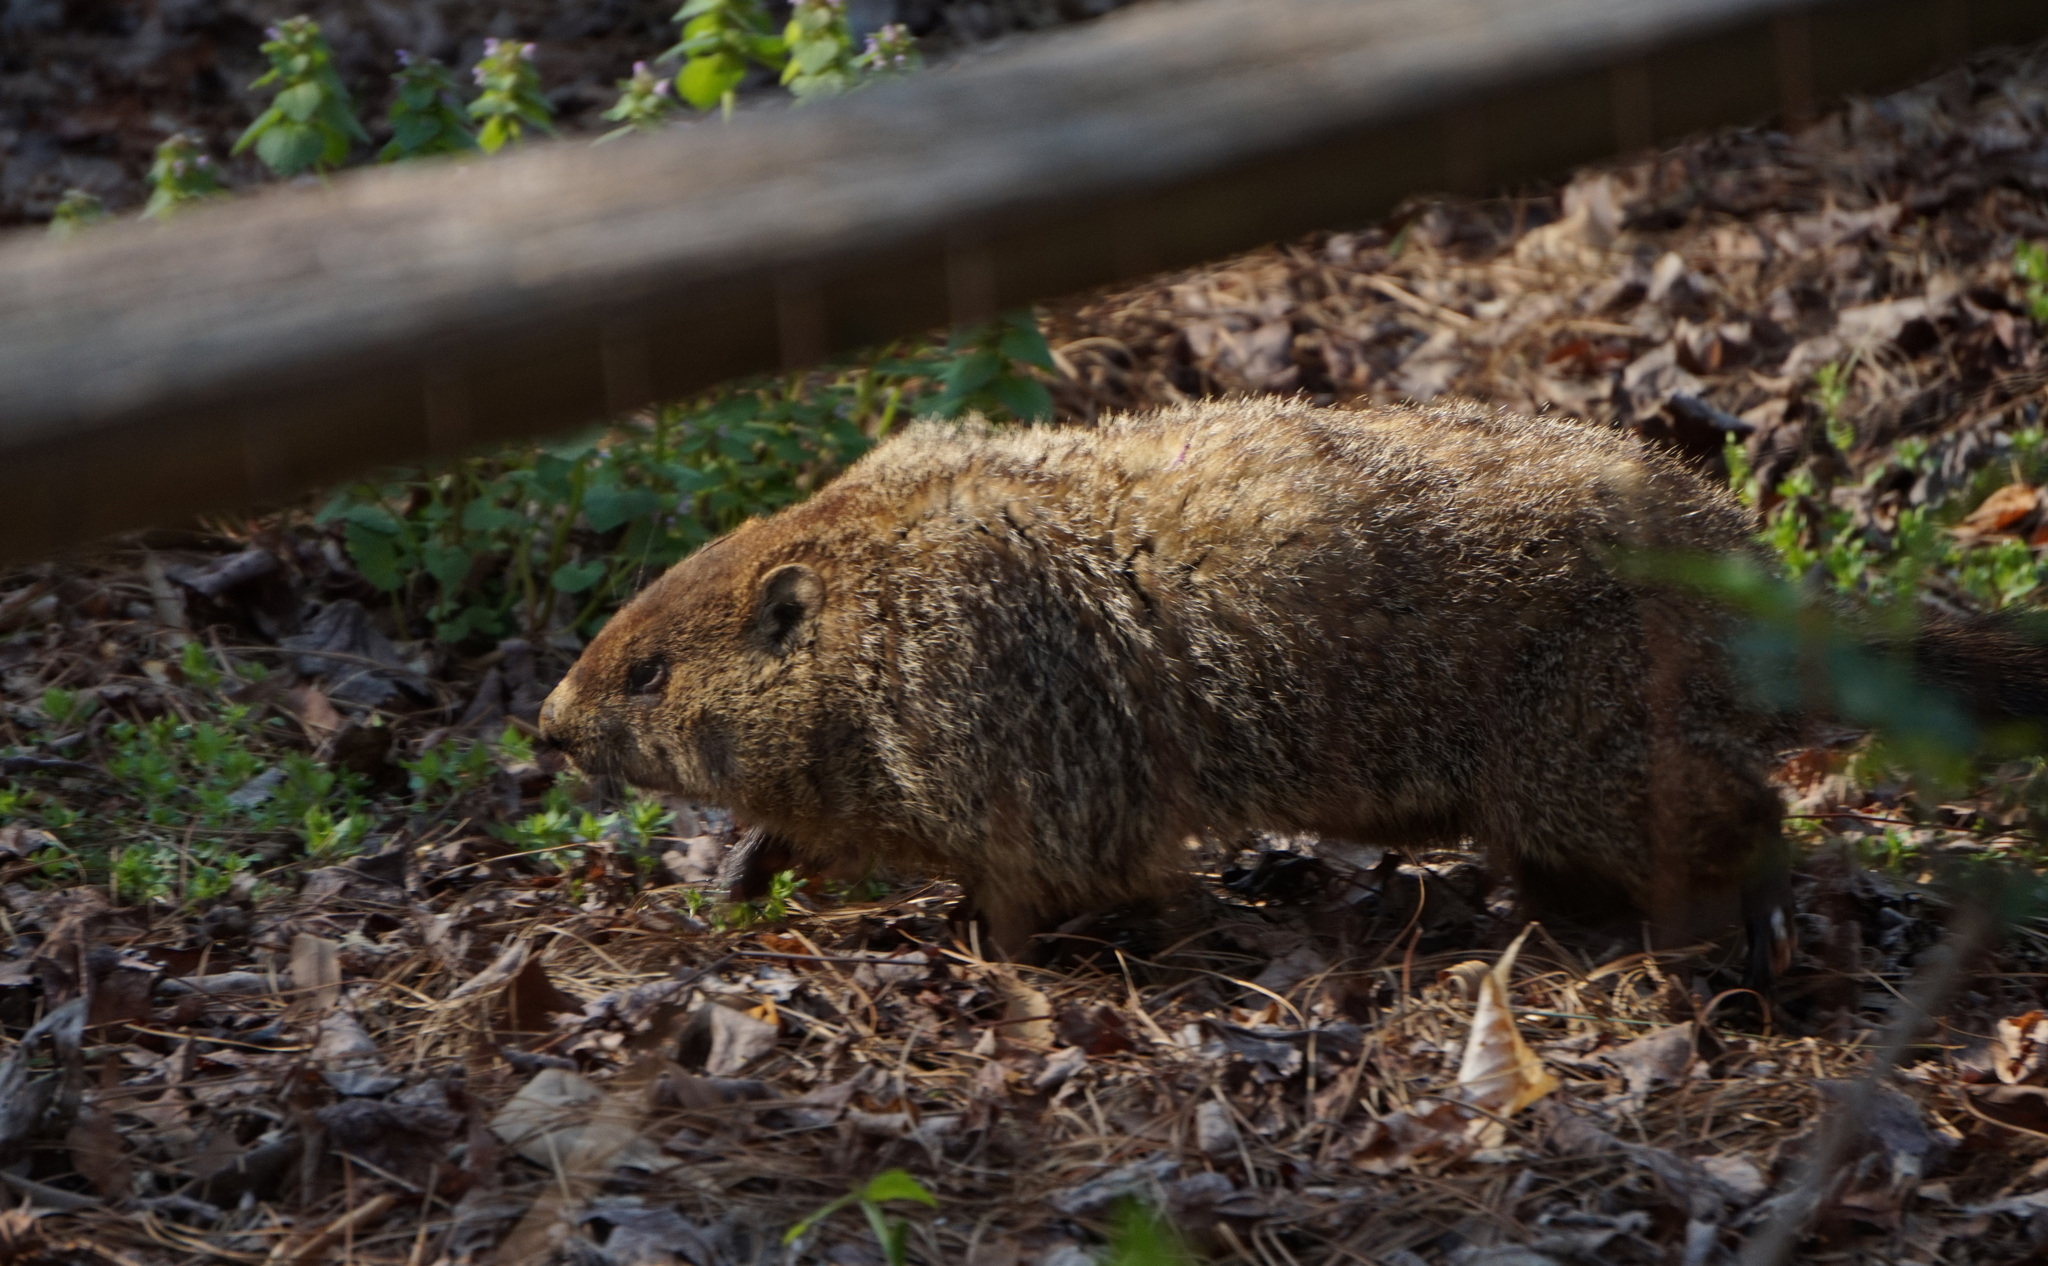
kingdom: Animalia
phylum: Chordata
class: Mammalia
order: Rodentia
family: Sciuridae
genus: Marmota
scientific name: Marmota monax
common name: Groundhog
